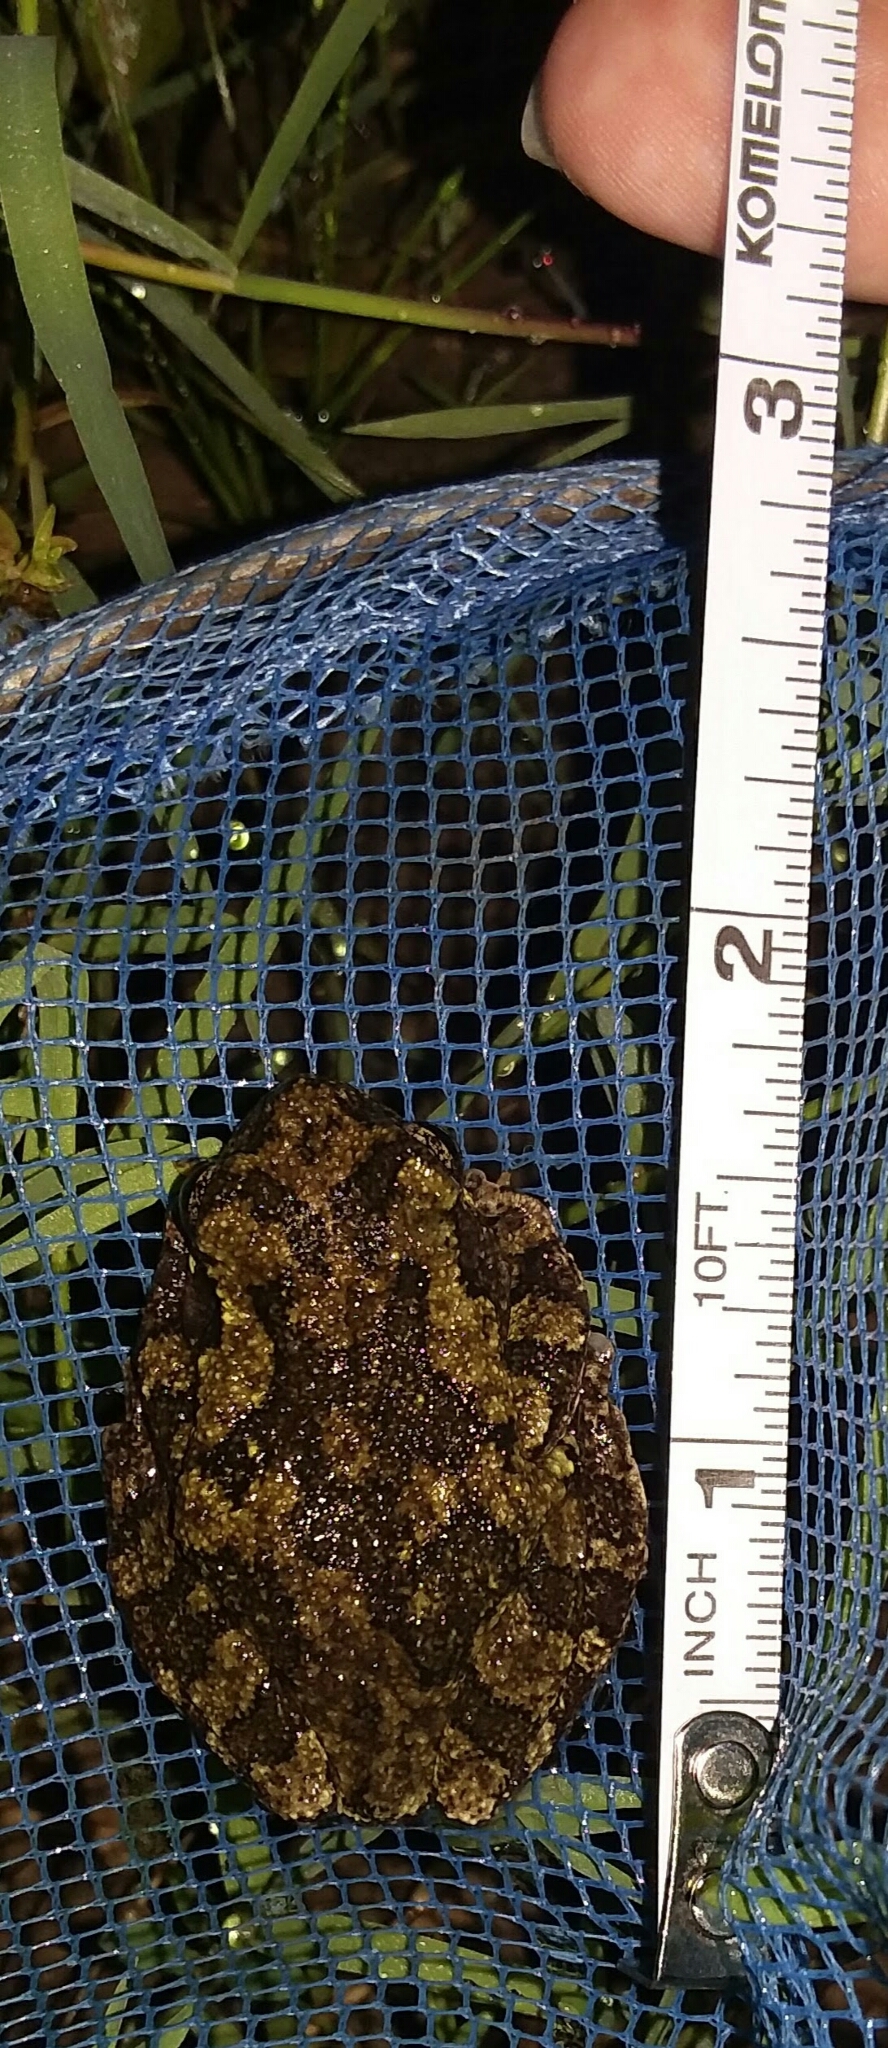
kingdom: Animalia
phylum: Chordata
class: Amphibia
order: Anura
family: Hylidae
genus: Dryophytes
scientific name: Dryophytes chrysoscelis
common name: Cope's gray treefrog
